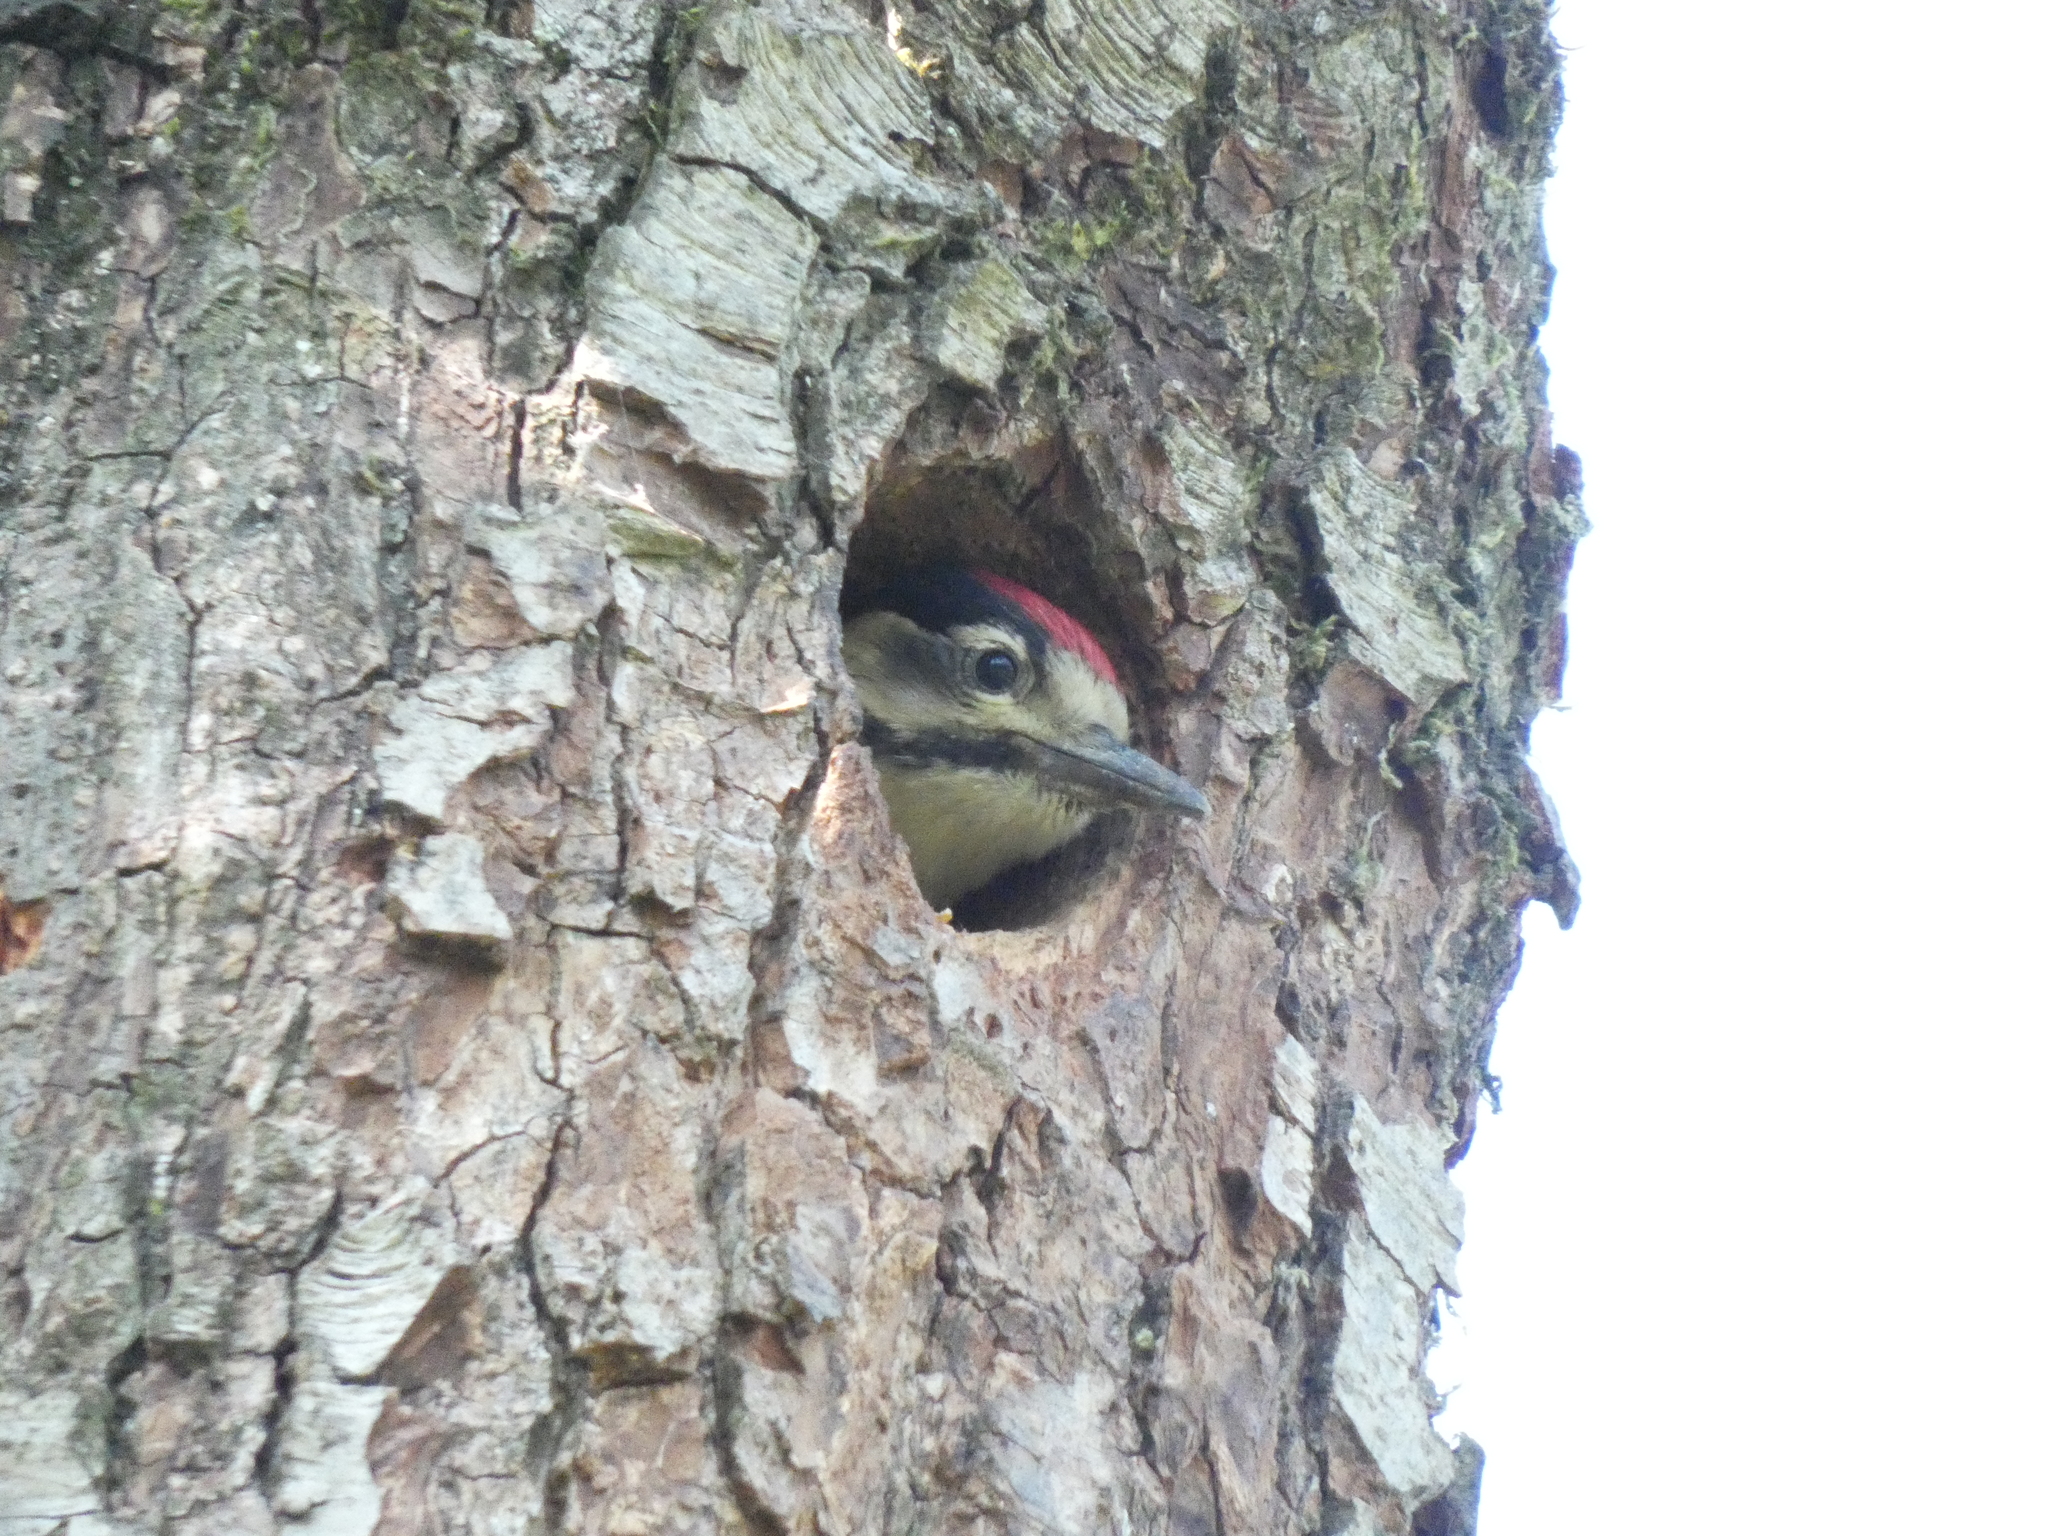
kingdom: Animalia
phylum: Chordata
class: Aves
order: Piciformes
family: Picidae
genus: Dendrocopos
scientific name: Dendrocopos major
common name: Great spotted woodpecker
